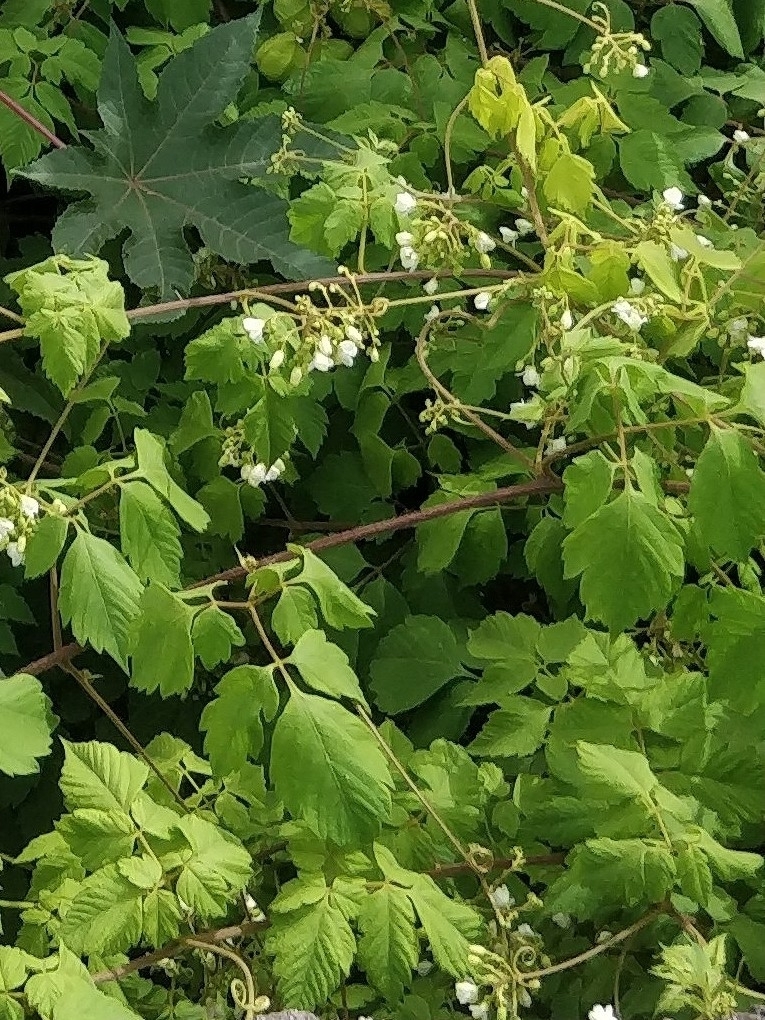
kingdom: Plantae
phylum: Tracheophyta
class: Magnoliopsida
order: Sapindales
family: Sapindaceae
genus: Cardiospermum
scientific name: Cardiospermum grandiflorum
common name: Balloon vine
